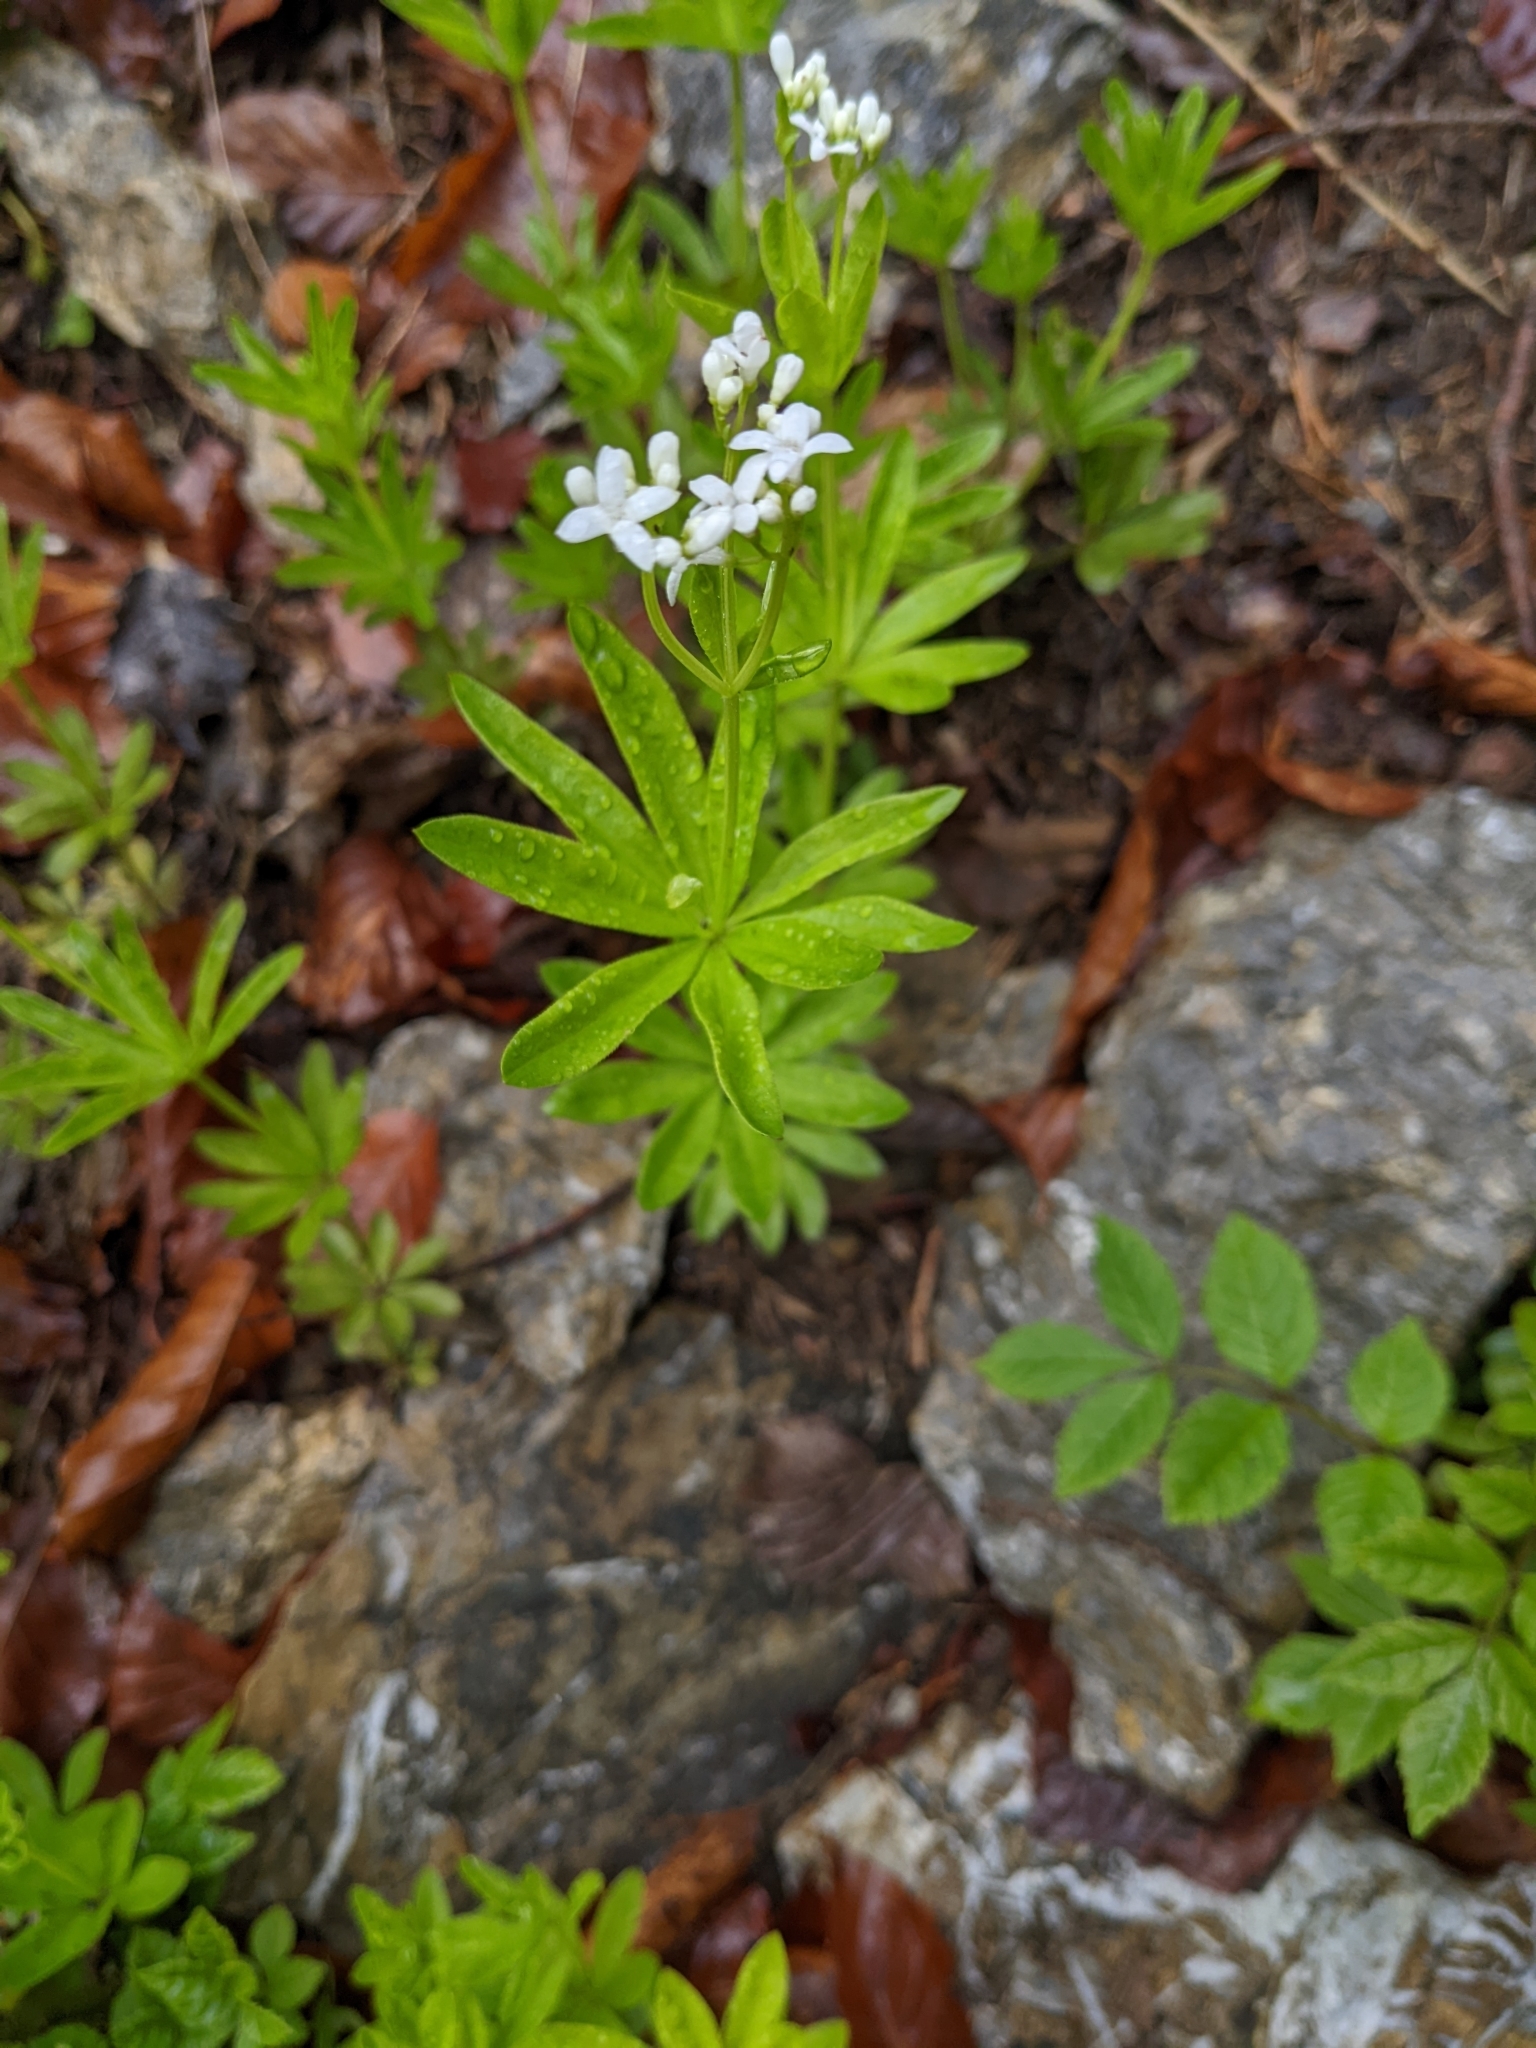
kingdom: Plantae
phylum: Tracheophyta
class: Magnoliopsida
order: Gentianales
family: Rubiaceae
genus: Galium
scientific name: Galium odoratum
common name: Sweet woodruff
